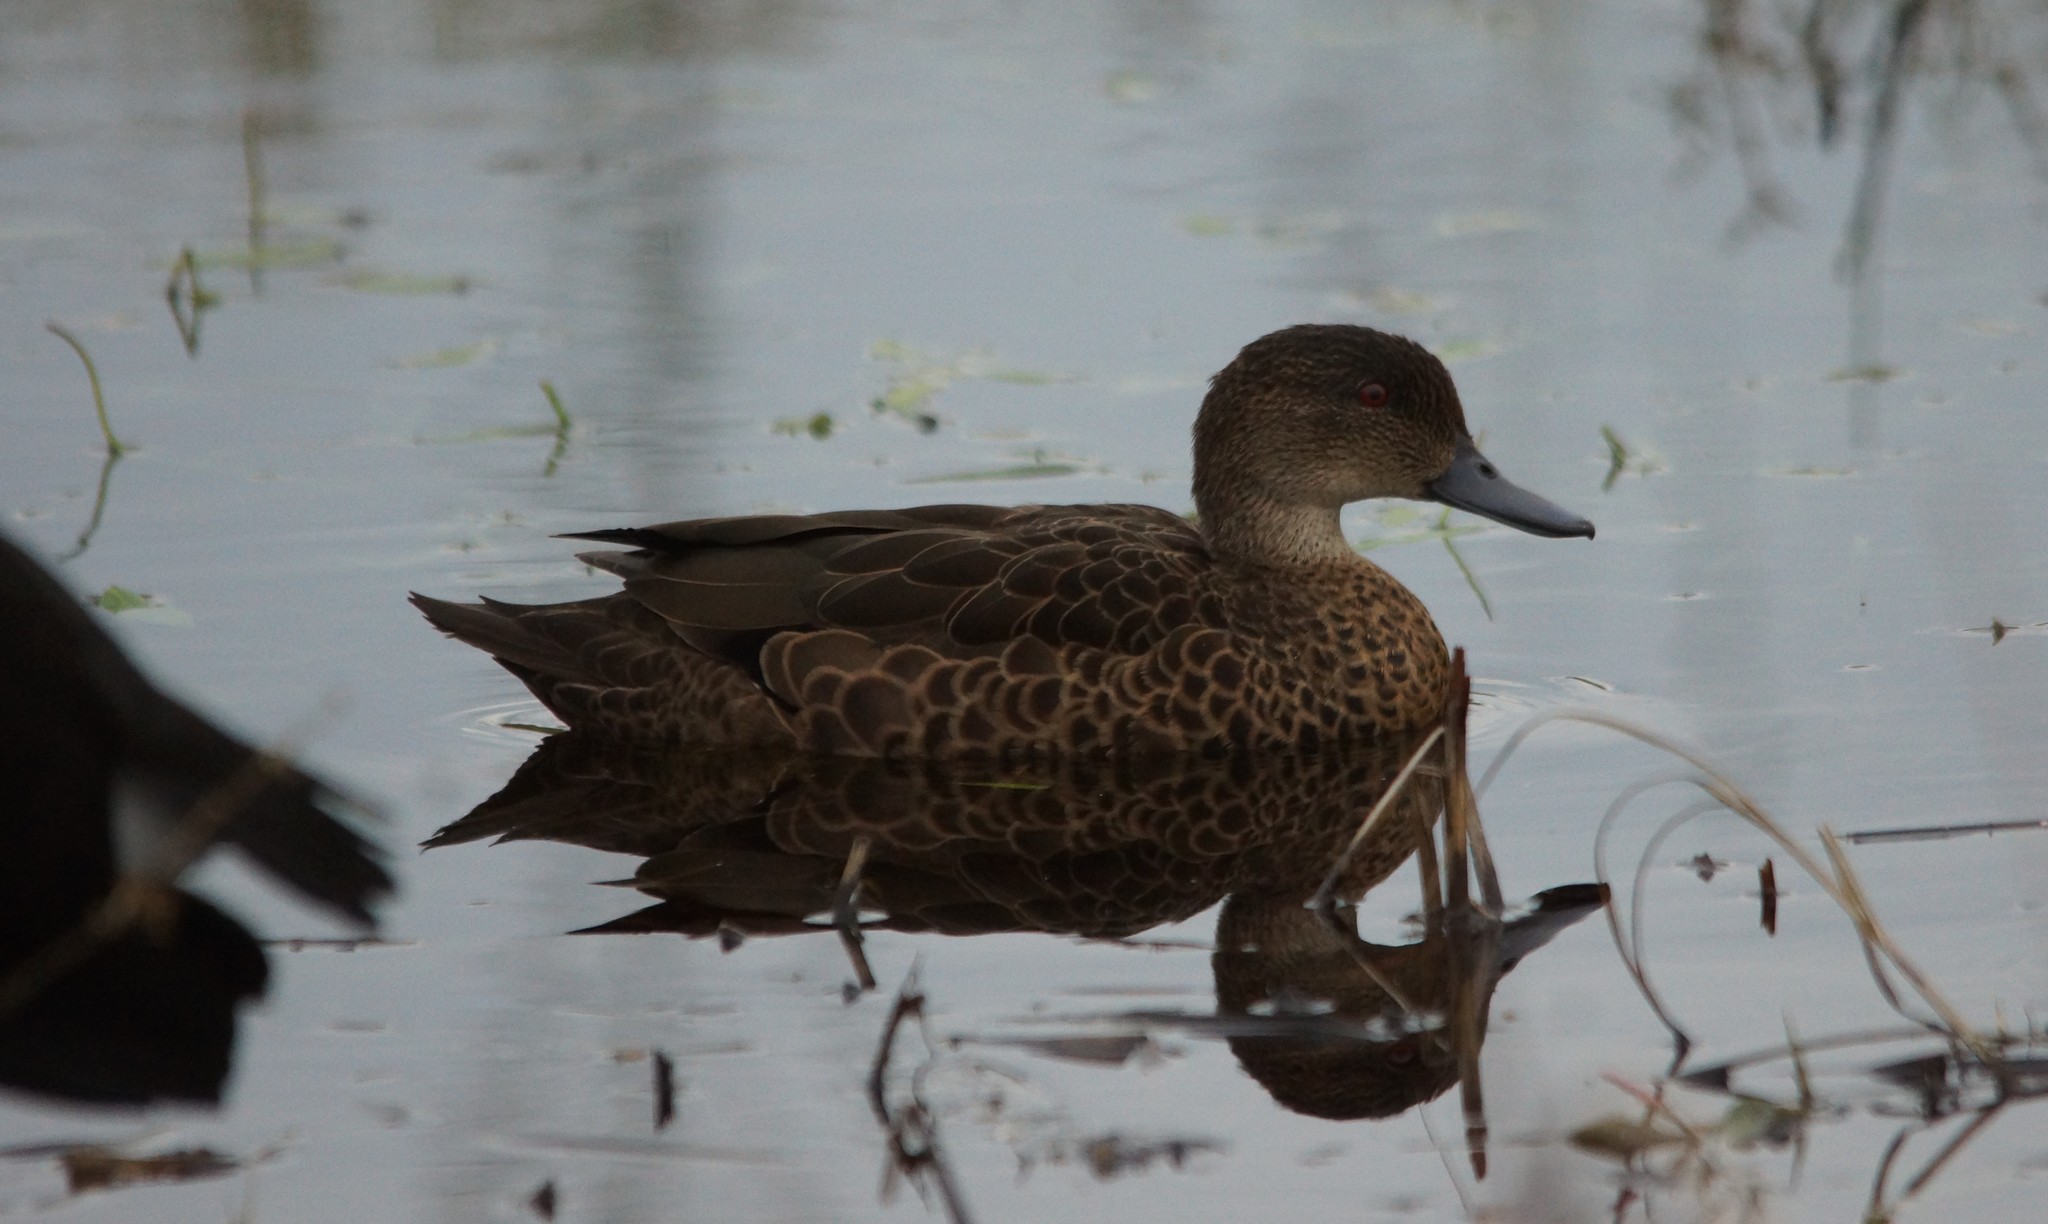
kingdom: Animalia
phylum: Chordata
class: Aves
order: Anseriformes
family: Anatidae
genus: Anas
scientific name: Anas castanea
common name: Chestnut teal
